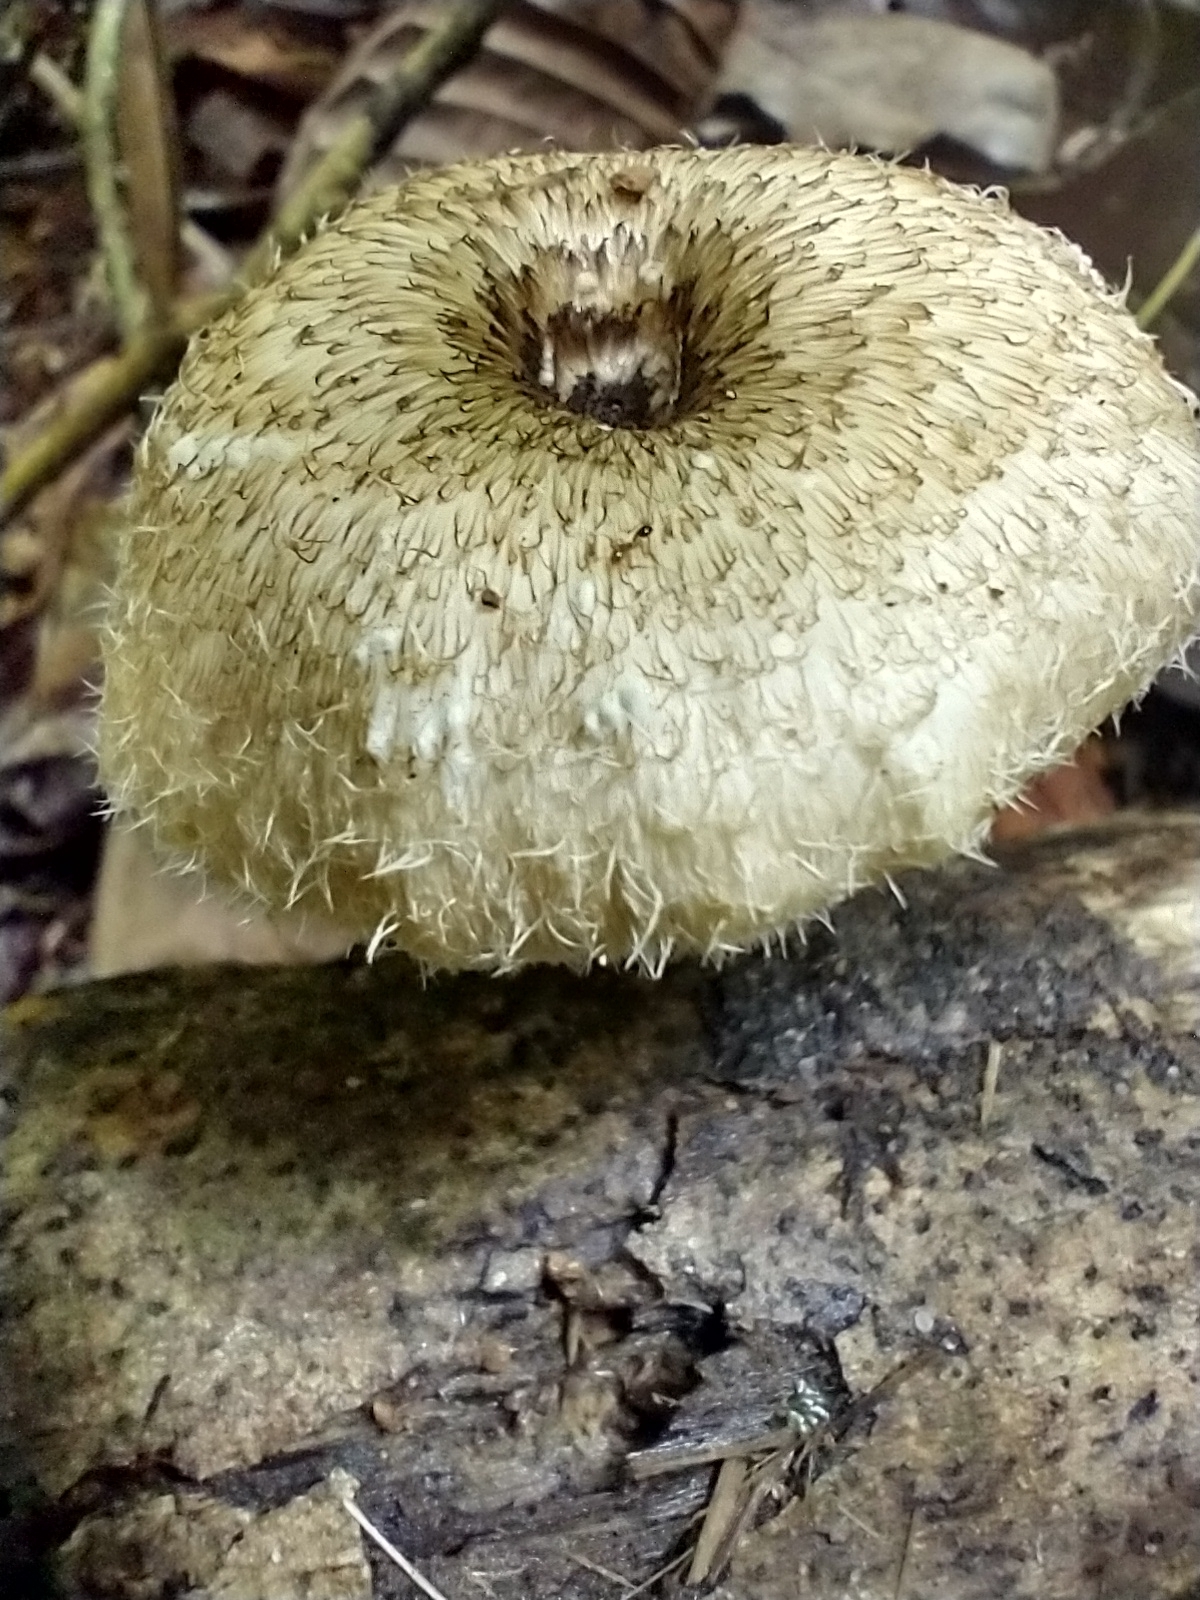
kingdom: Fungi
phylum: Basidiomycota
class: Agaricomycetes
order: Polyporales
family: Polyporaceae
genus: Lentinus
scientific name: Lentinus crinitus
